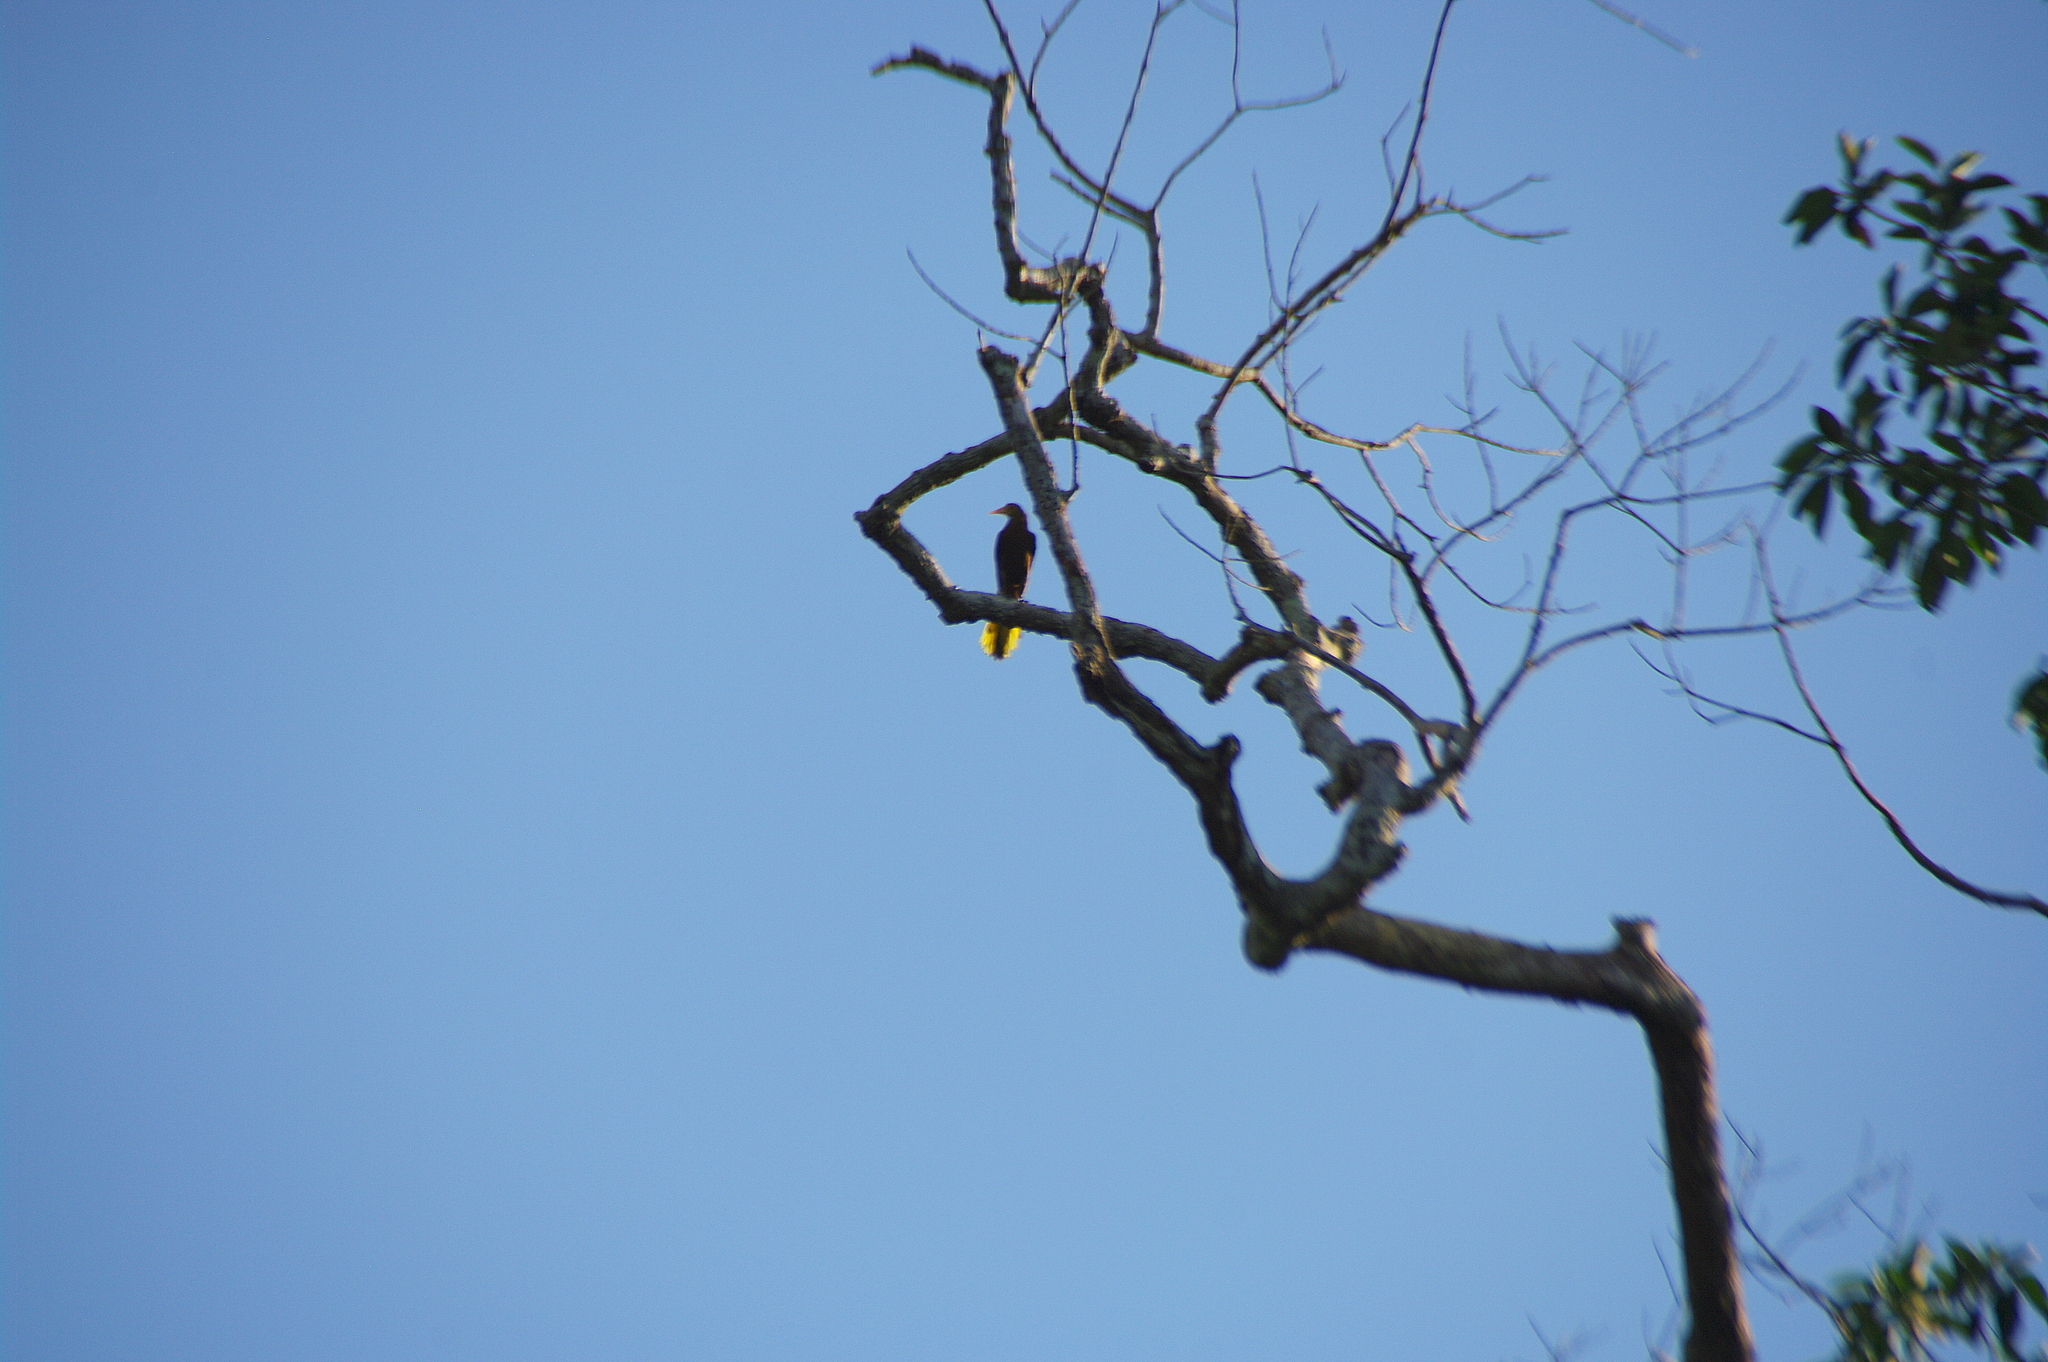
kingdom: Animalia
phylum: Chordata
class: Aves
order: Passeriformes
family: Icteridae
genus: Psarocolius
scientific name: Psarocolius angustifrons
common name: Russet-backed oropendola
